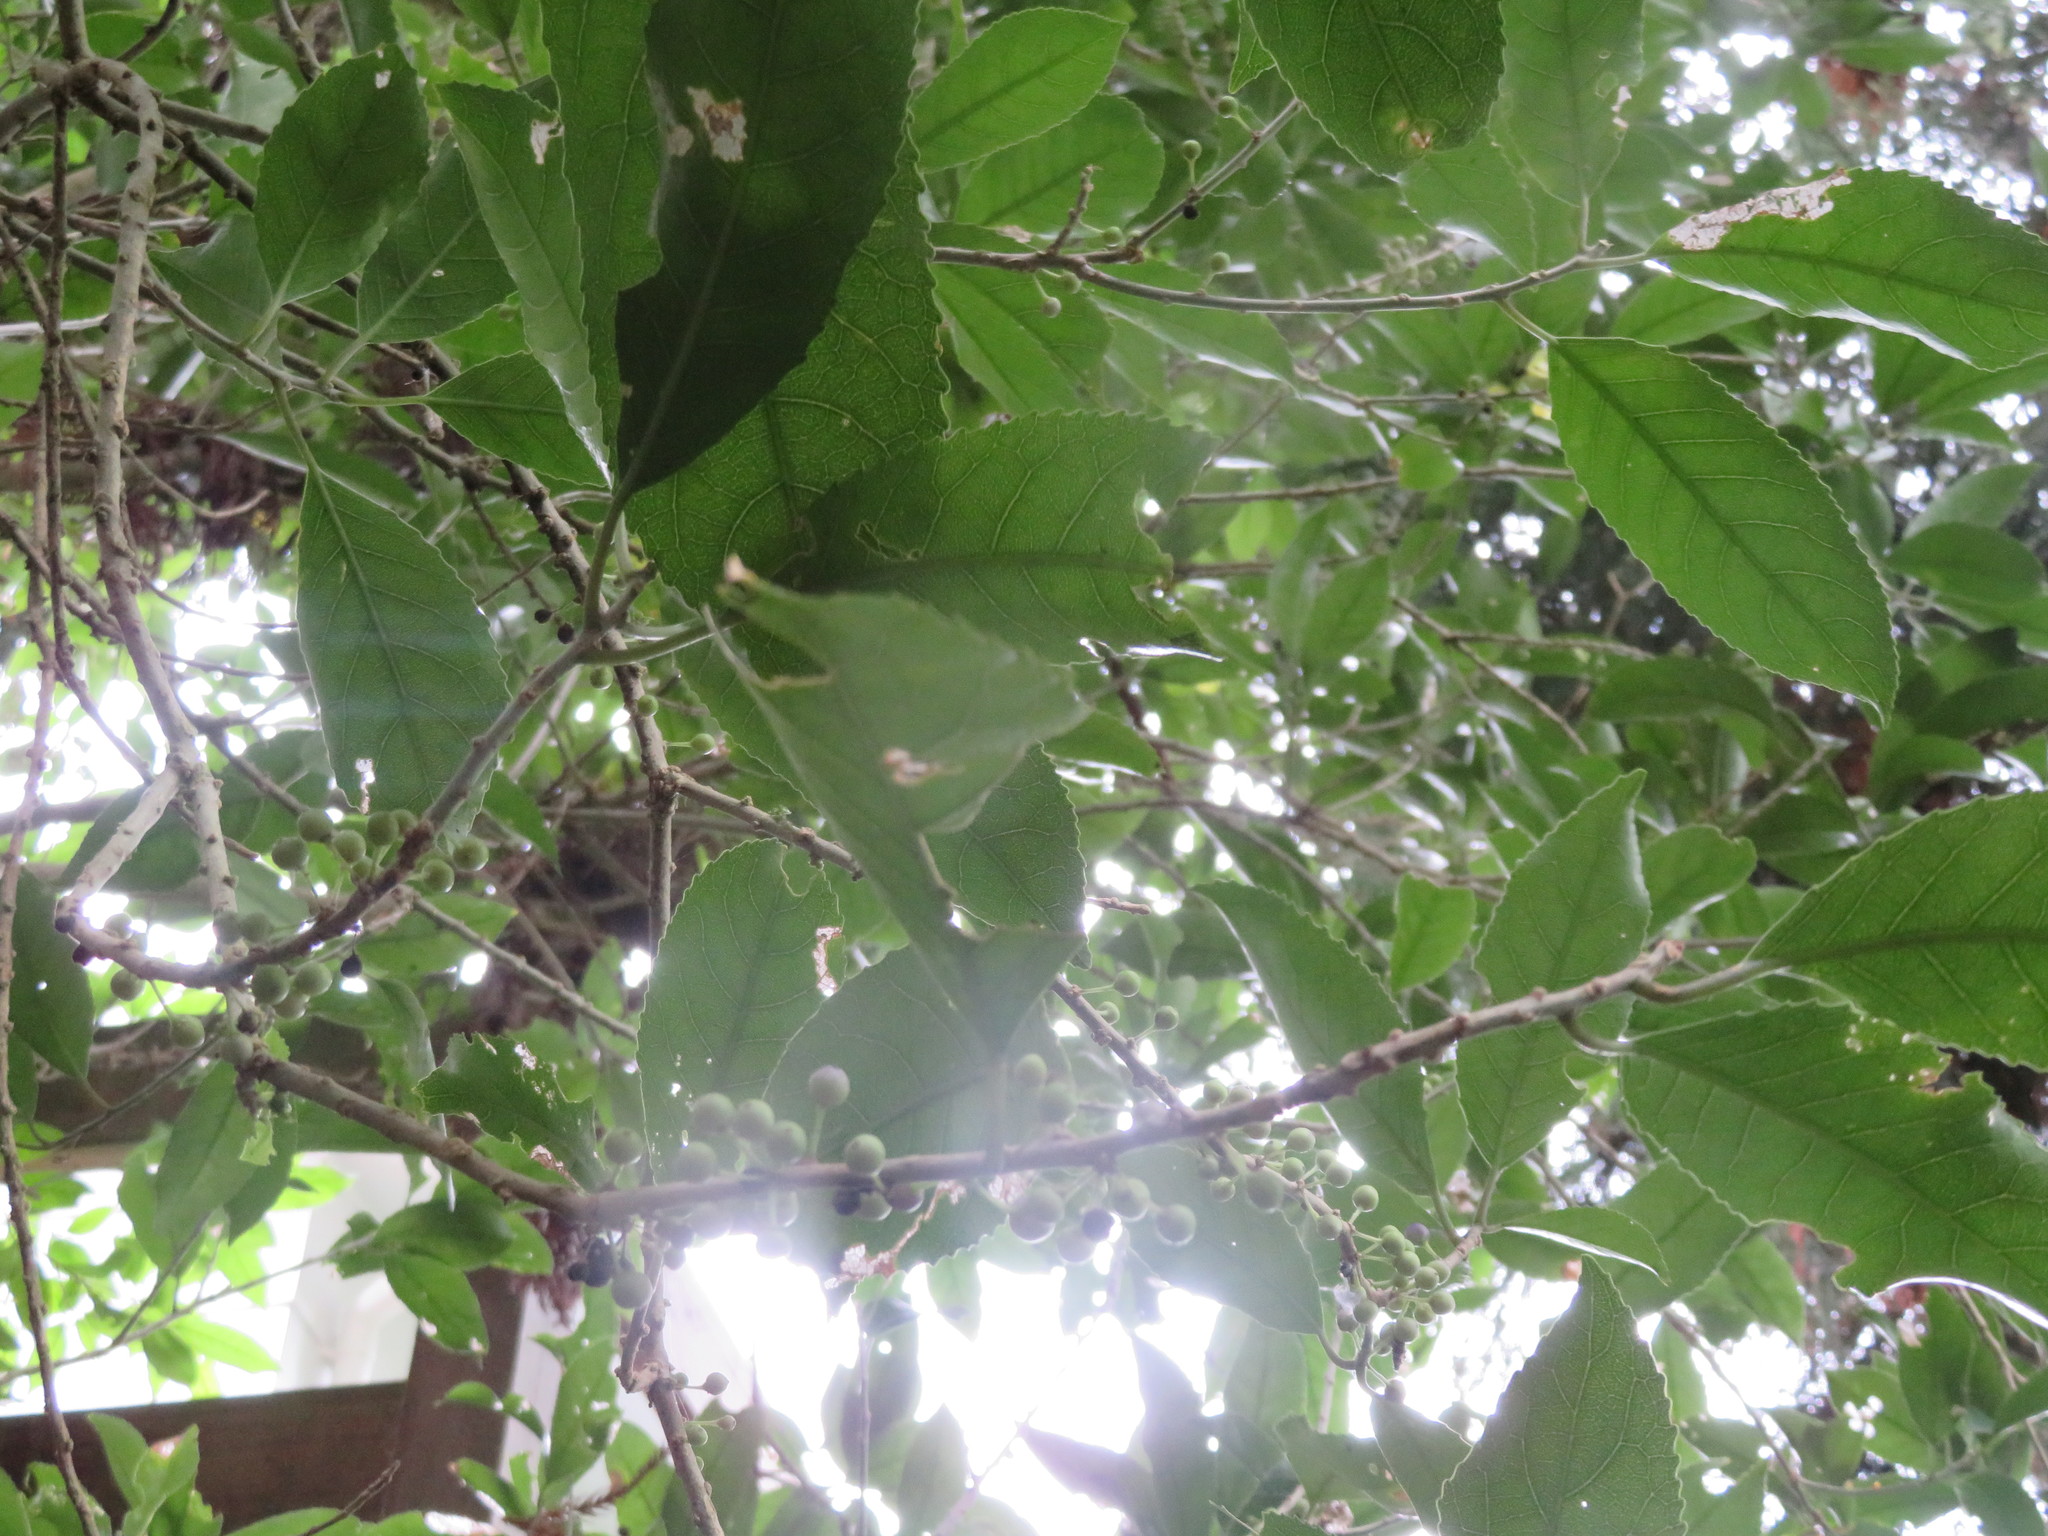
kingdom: Plantae
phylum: Tracheophyta
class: Magnoliopsida
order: Malpighiales
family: Violaceae
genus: Melicytus
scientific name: Melicytus ramiflorus
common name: Mahoe
